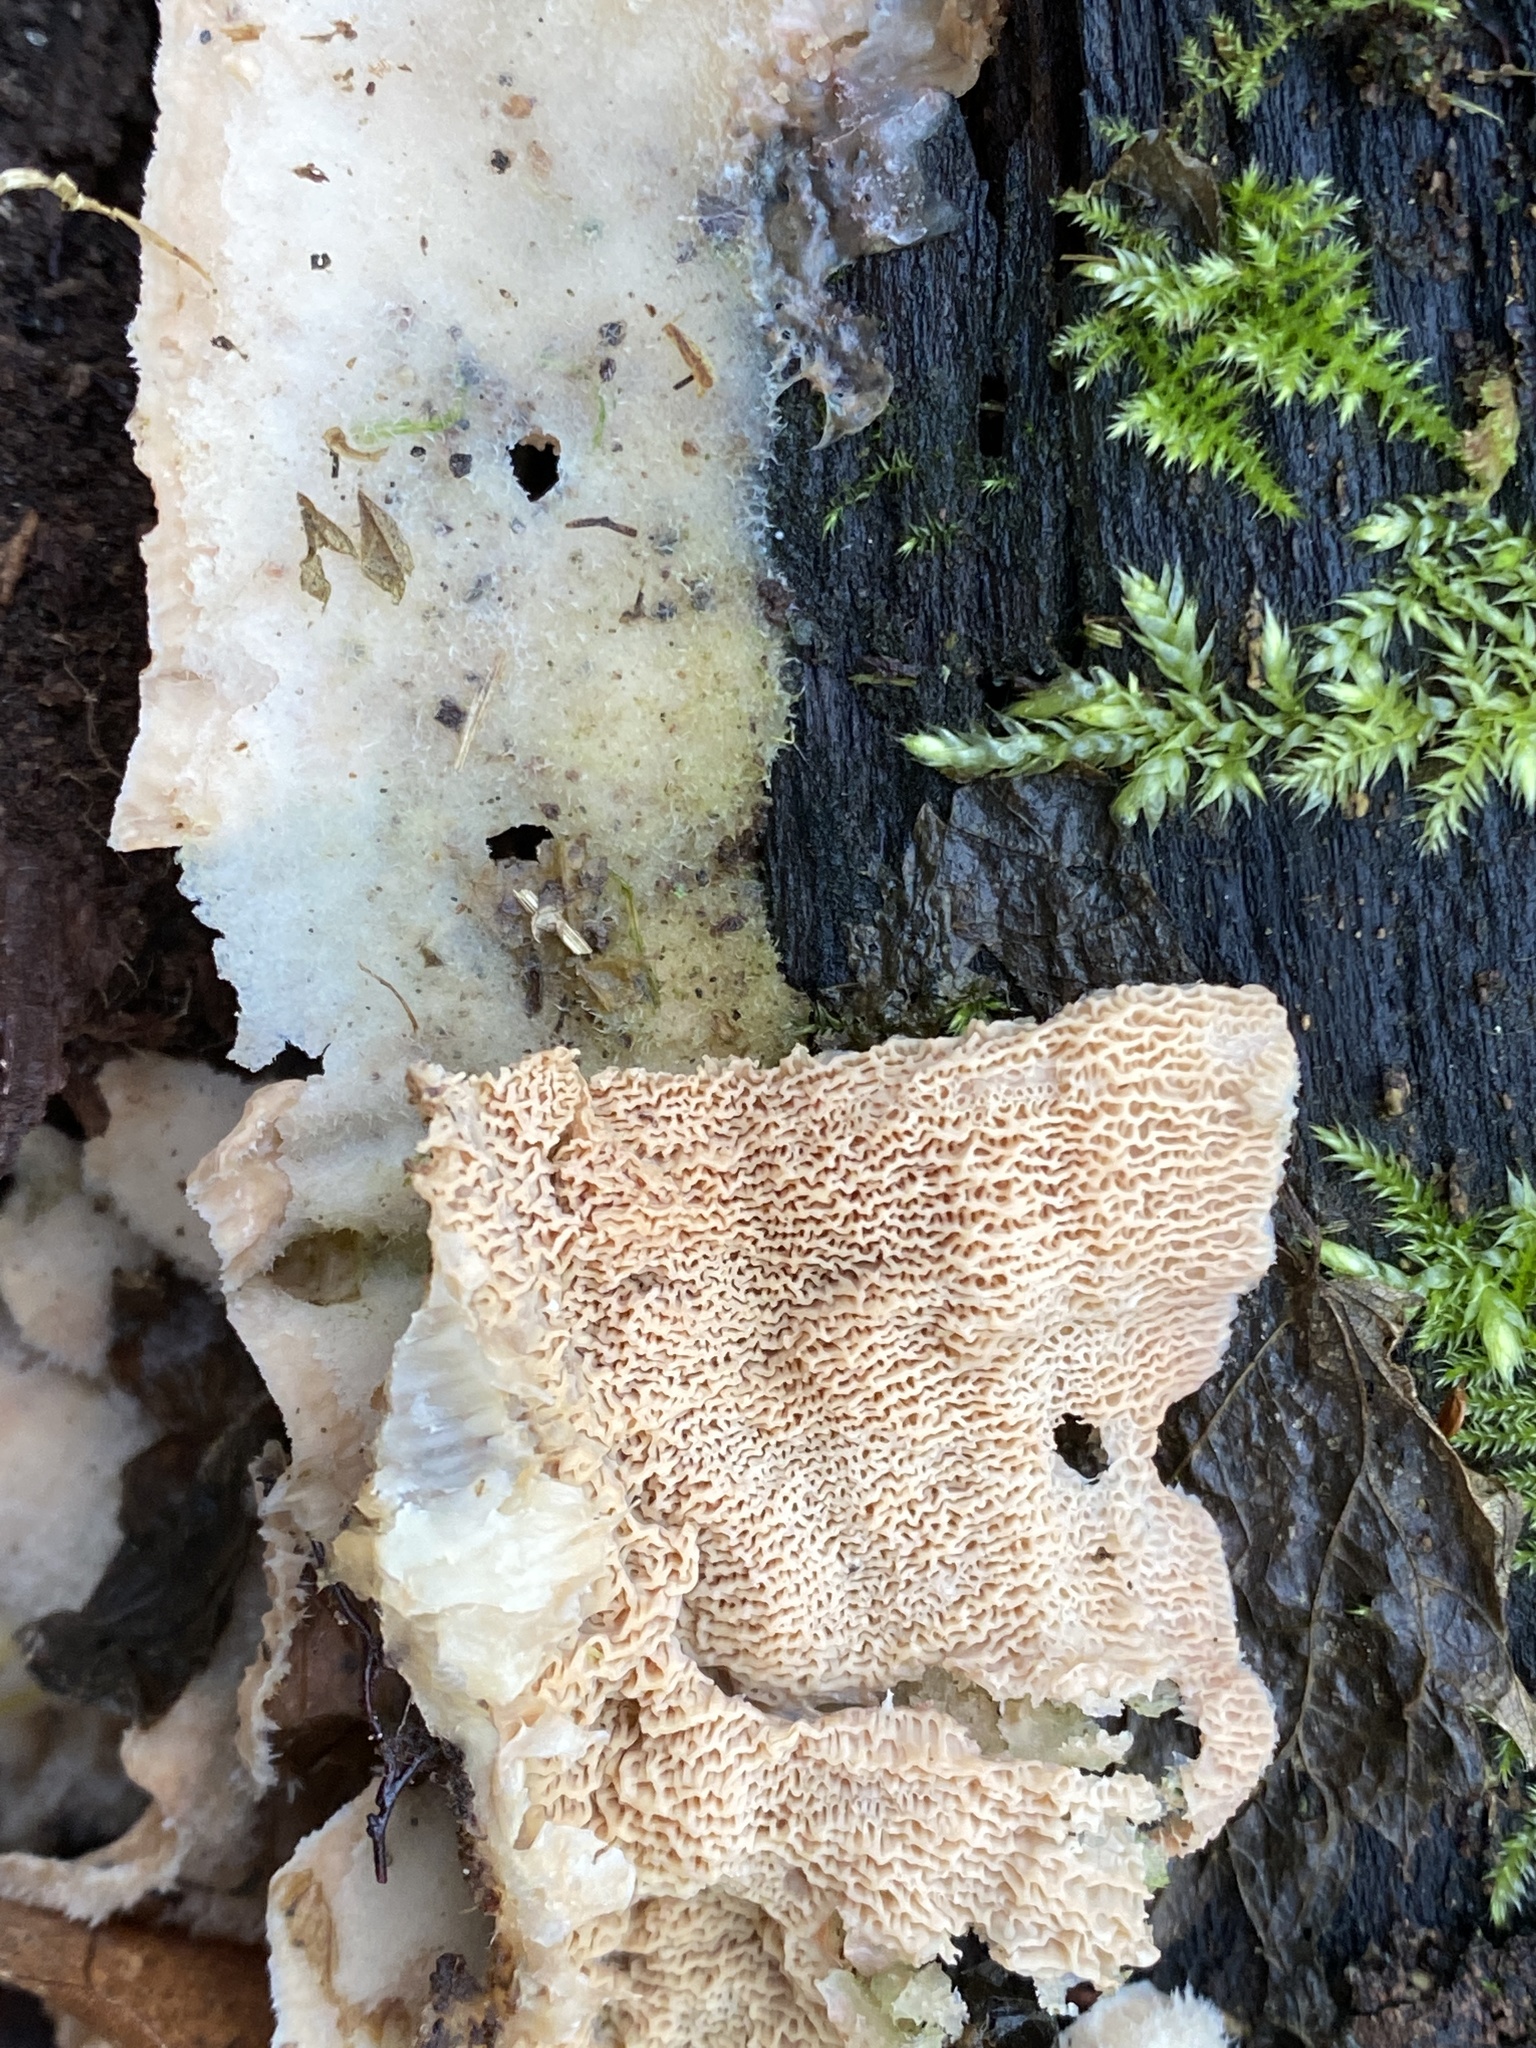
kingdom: Fungi
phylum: Basidiomycota
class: Agaricomycetes
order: Polyporales
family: Meruliaceae
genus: Phlebia
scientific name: Phlebia tremellosa
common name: Jelly rot
